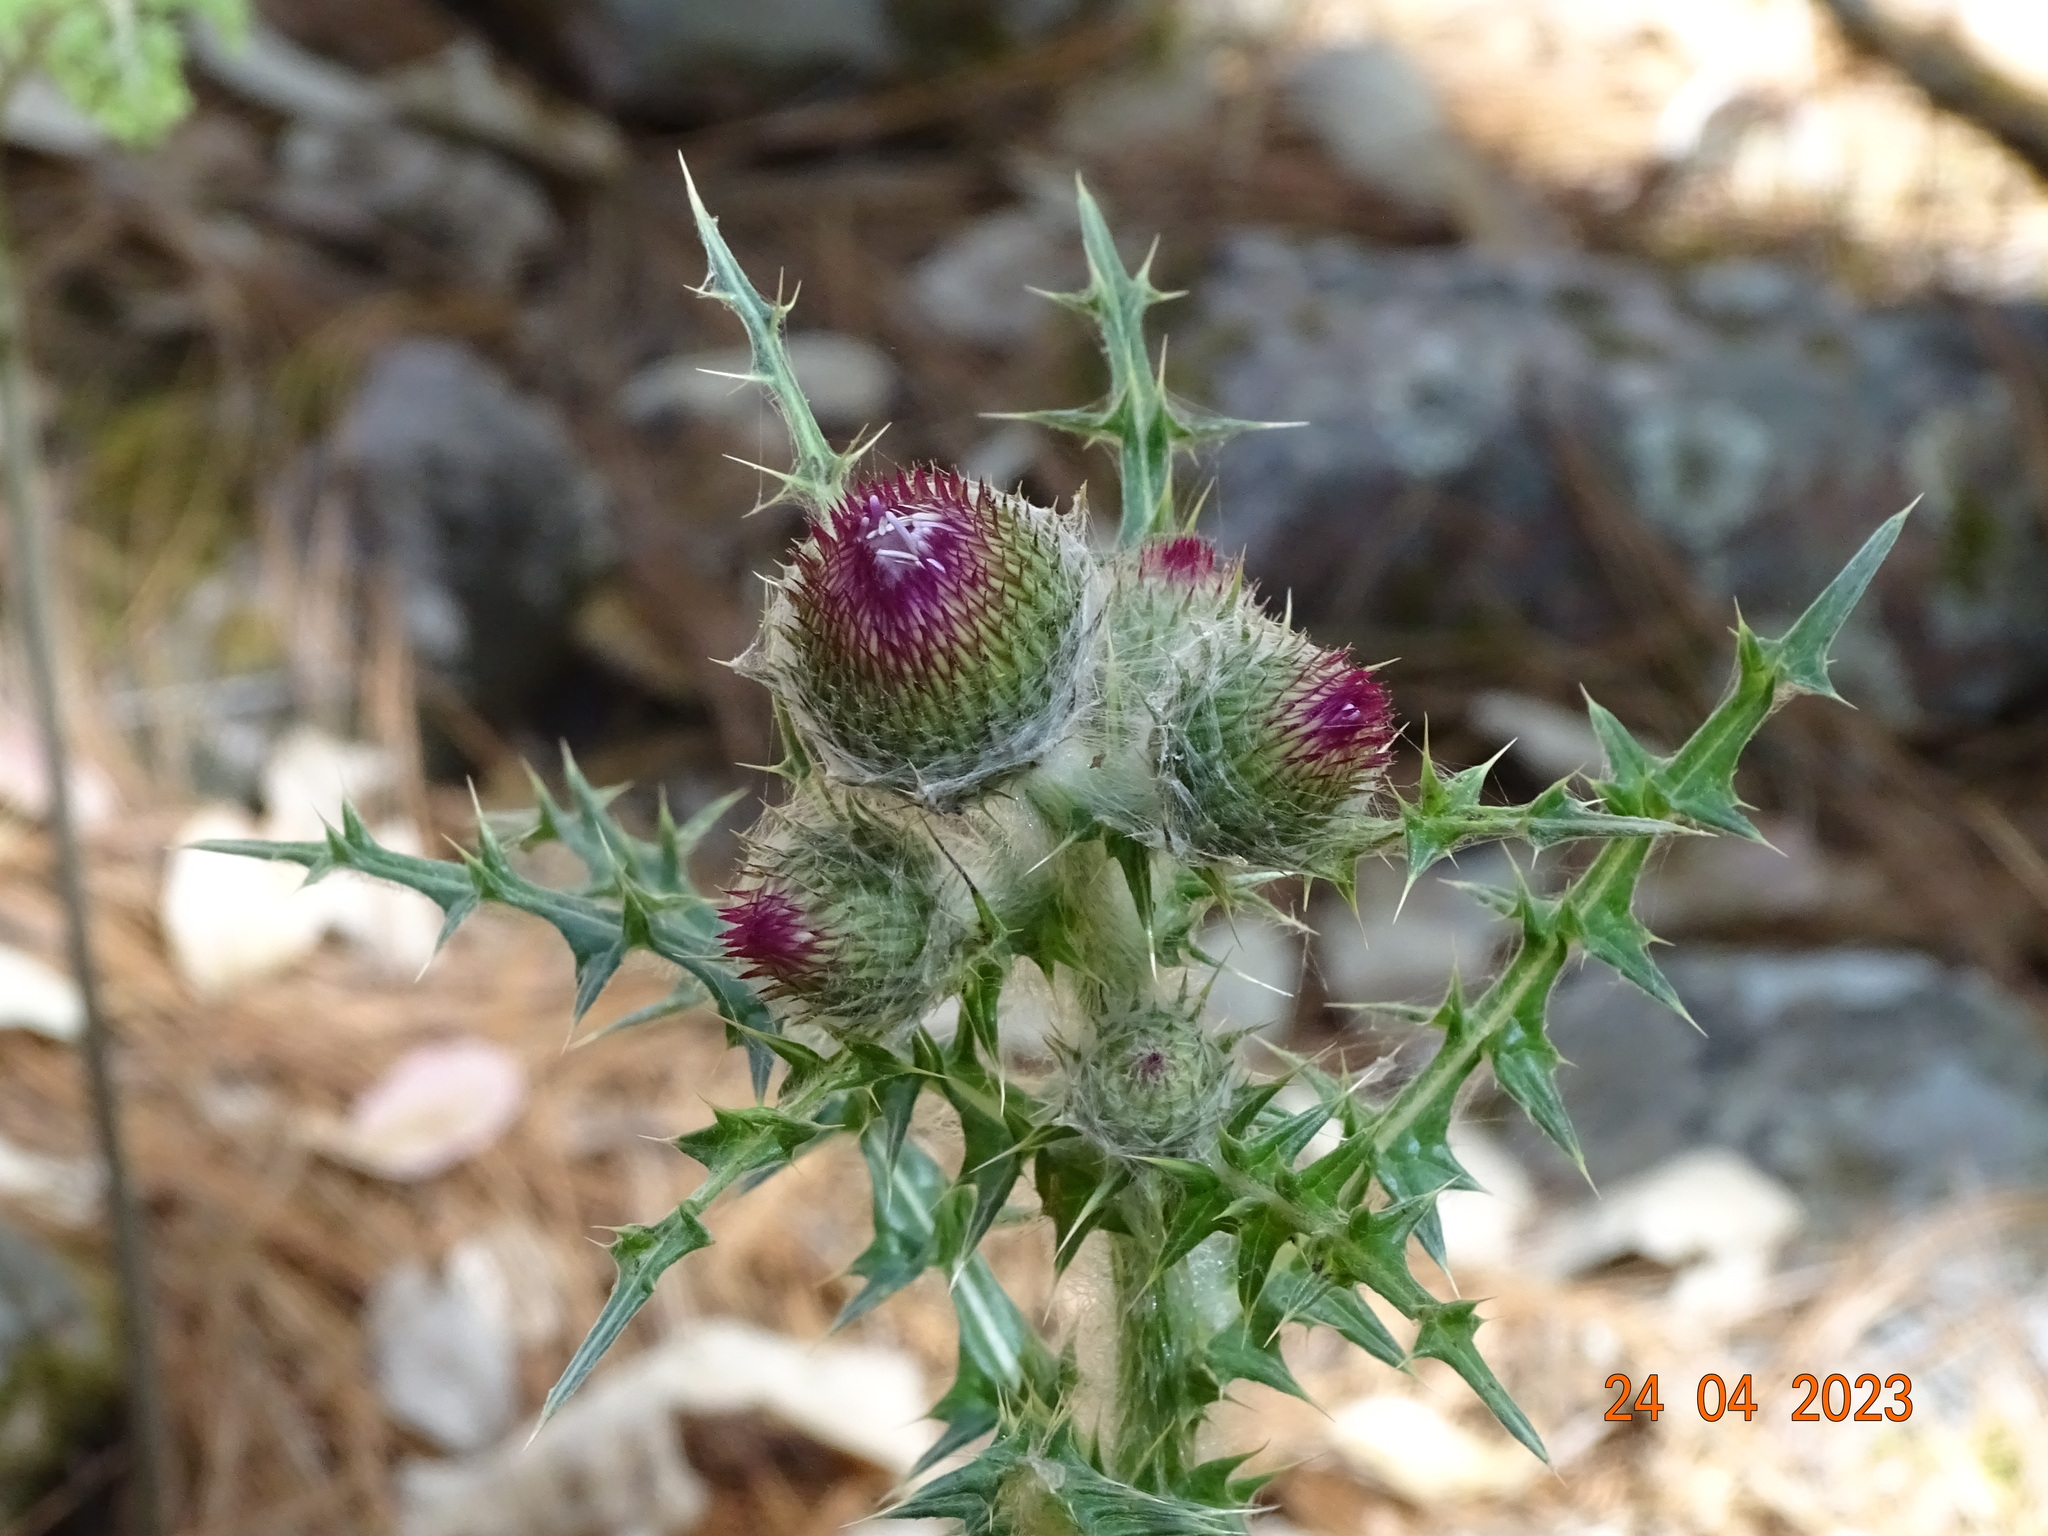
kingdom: Plantae
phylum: Tracheophyta
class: Magnoliopsida
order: Asterales
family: Asteraceae
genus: Cirsium
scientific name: Cirsium rhaphilepis
